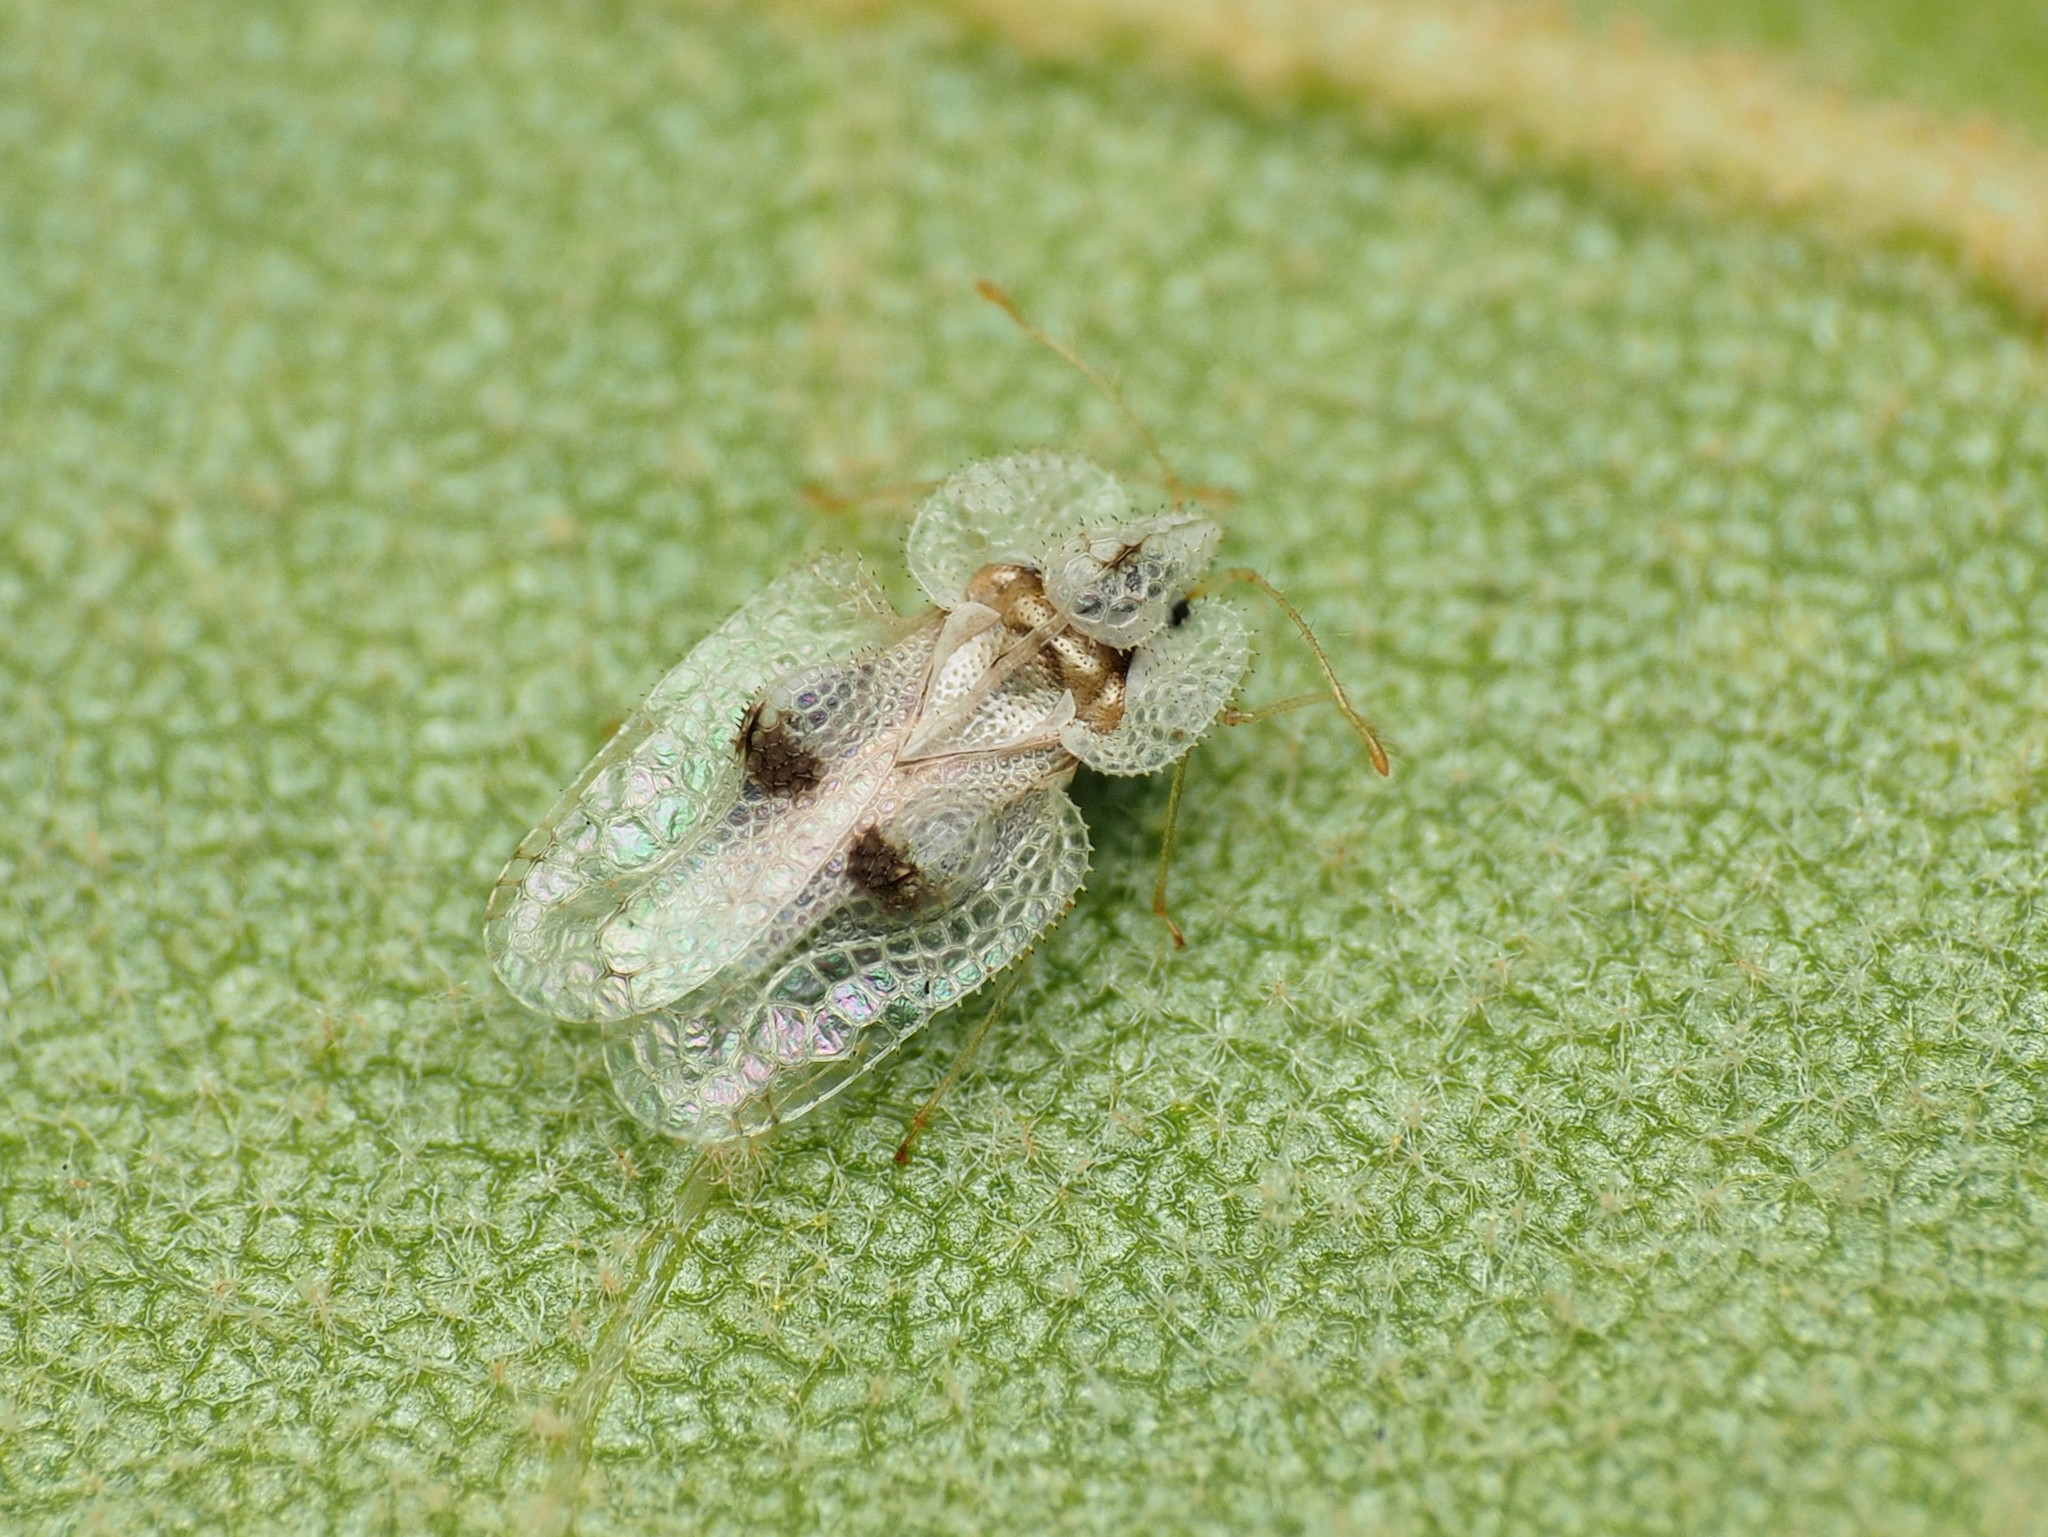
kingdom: Animalia
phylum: Arthropoda
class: Insecta
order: Hemiptera
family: Tingidae
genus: Corythucha
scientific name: Corythucha ciliata
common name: Sycamore lace bug
